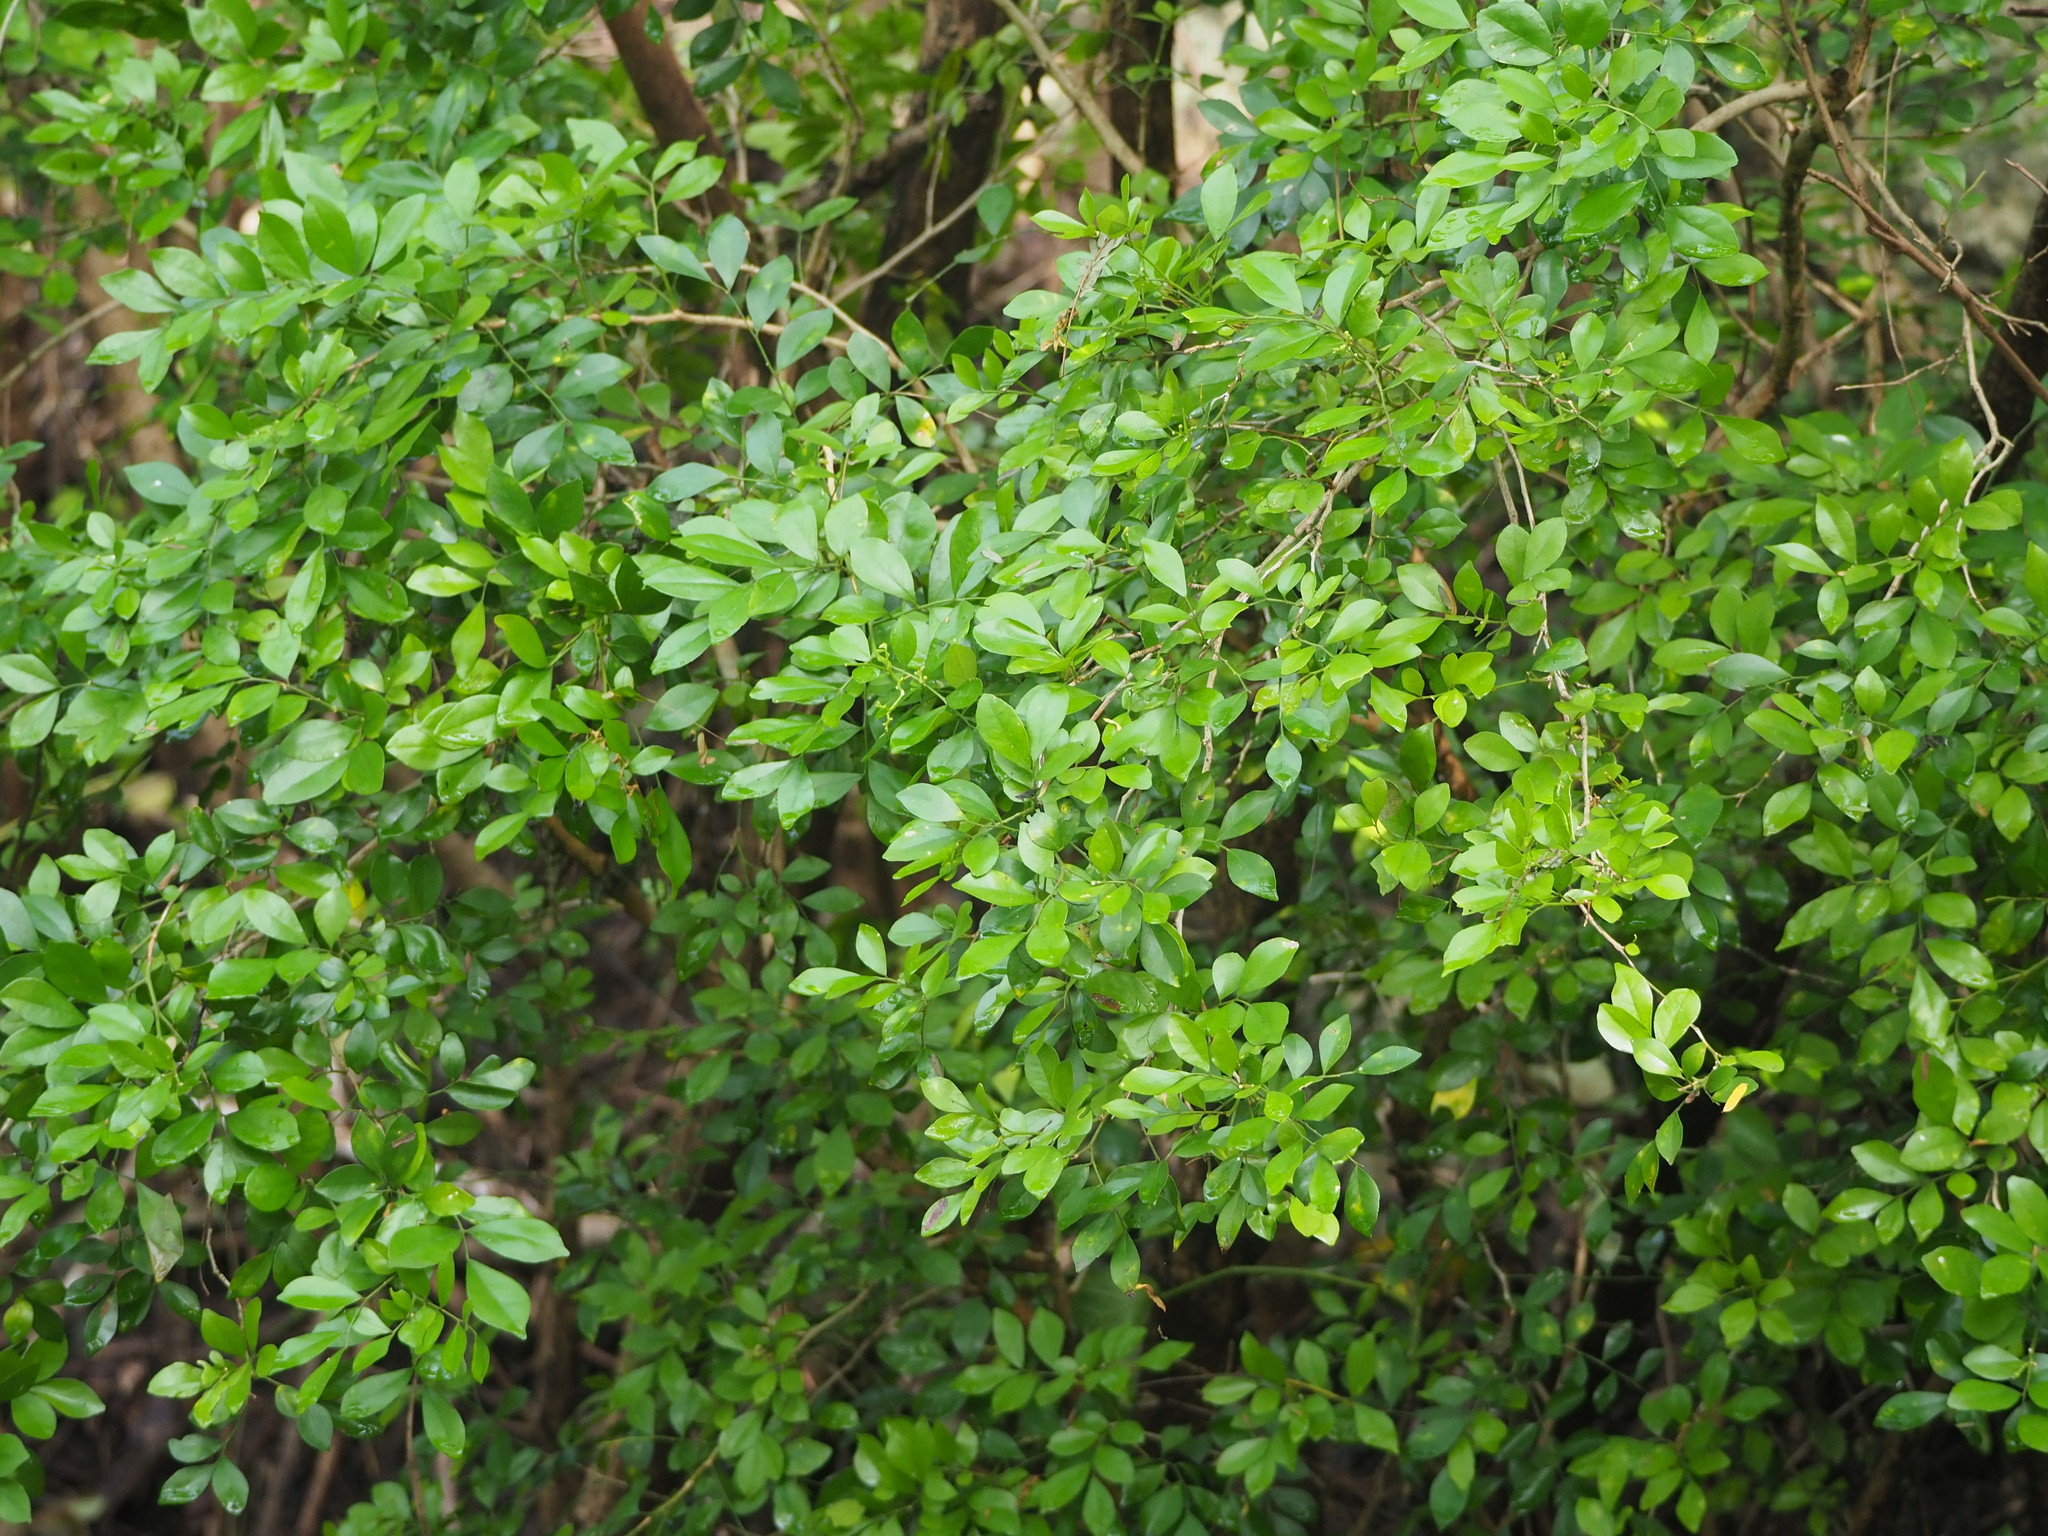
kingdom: Plantae
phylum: Tracheophyta
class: Magnoliopsida
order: Sapindales
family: Rutaceae
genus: Murraya
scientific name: Murraya paniculata
